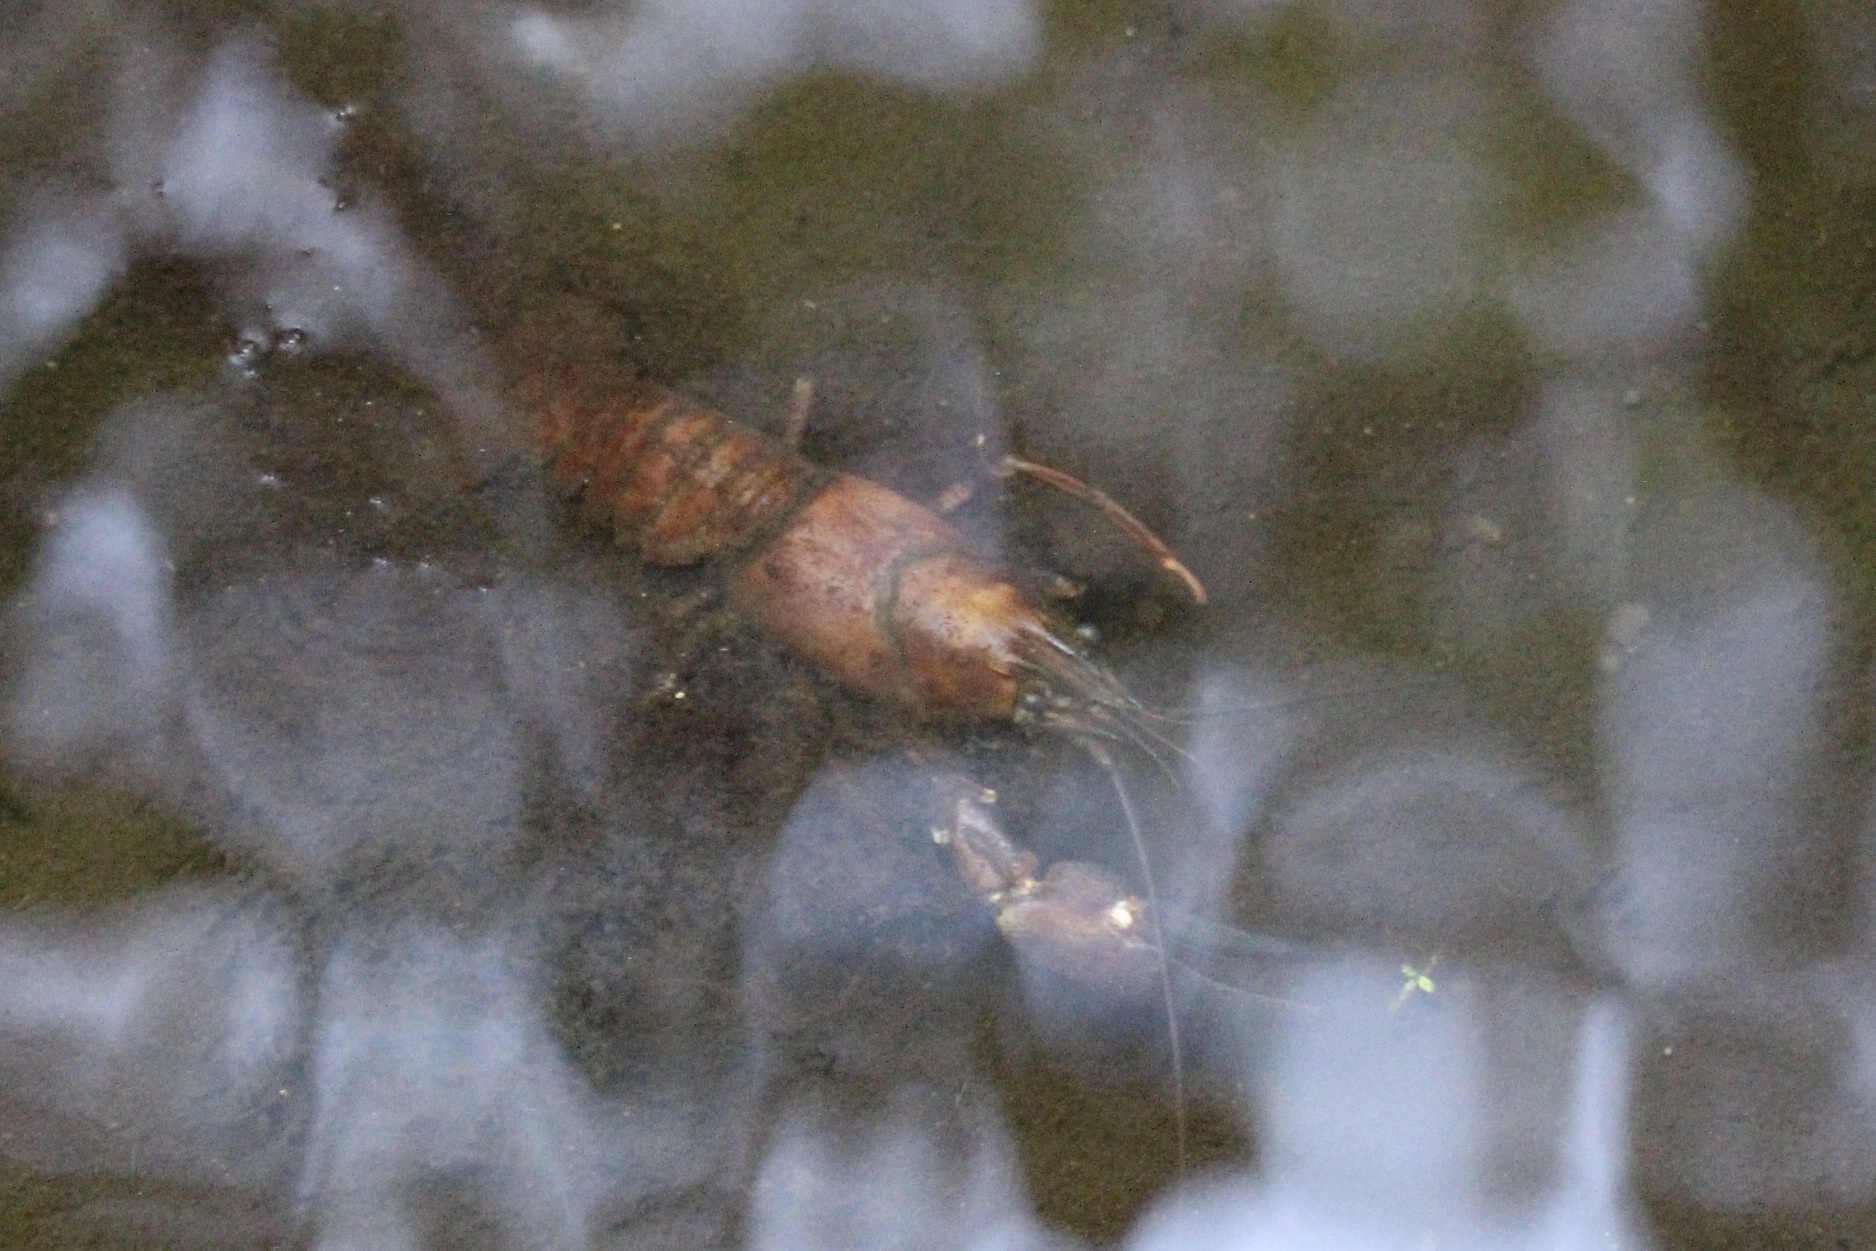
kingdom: Animalia
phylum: Arthropoda
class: Malacostraca
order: Decapoda
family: Astacidae
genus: Pacifastacus
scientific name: Pacifastacus leniusculus
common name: Signal crayfish
